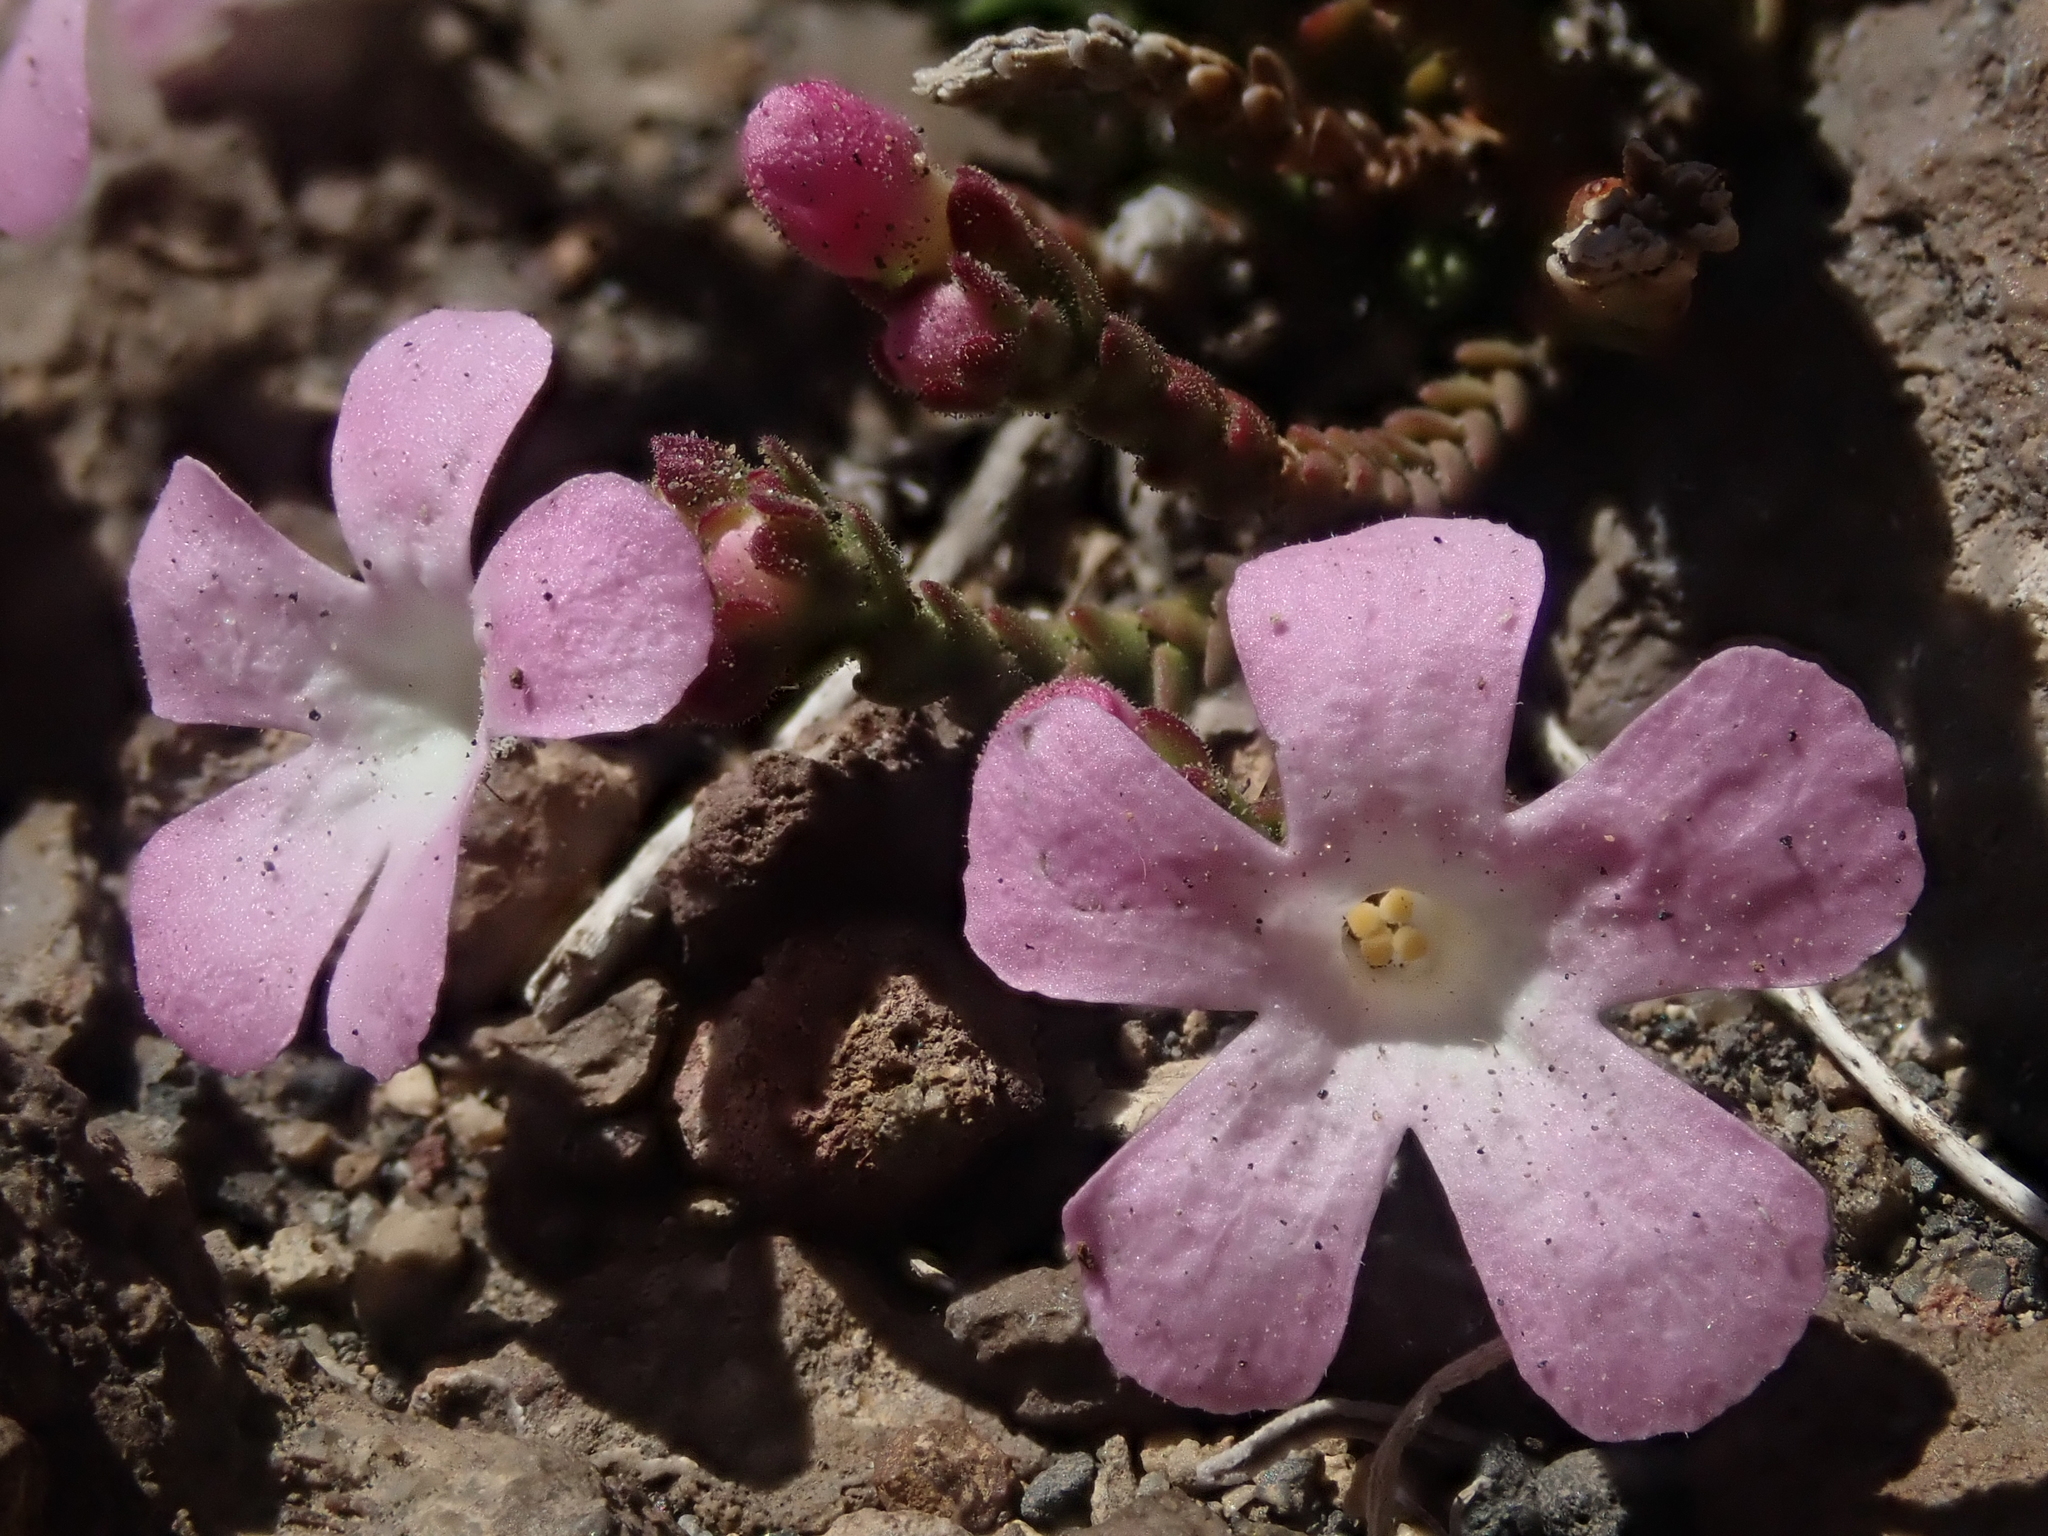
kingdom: Plantae
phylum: Tracheophyta
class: Magnoliopsida
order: Lamiales
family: Plantaginaceae
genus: Ourisia
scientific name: Ourisia microphylla
